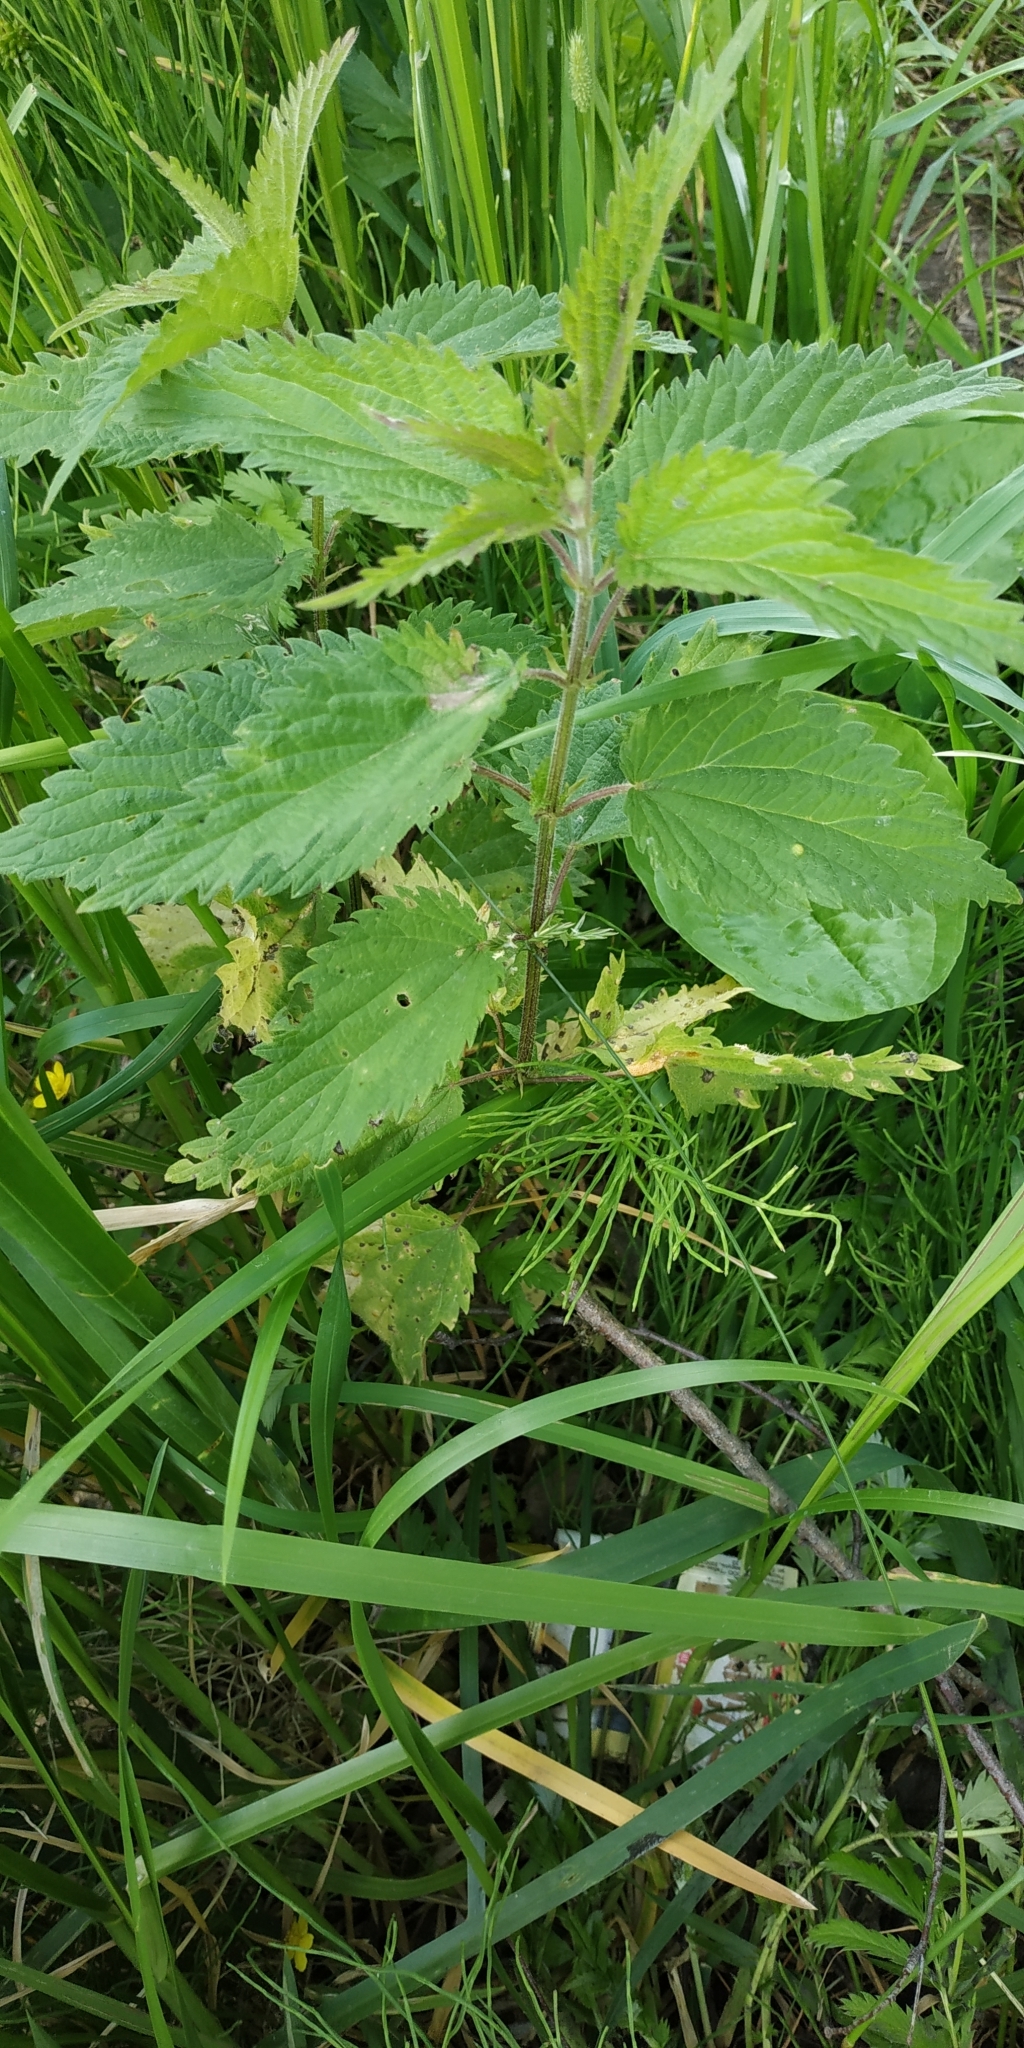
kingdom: Plantae
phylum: Tracheophyta
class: Magnoliopsida
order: Rosales
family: Urticaceae
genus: Urtica
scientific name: Urtica dioica
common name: Common nettle
